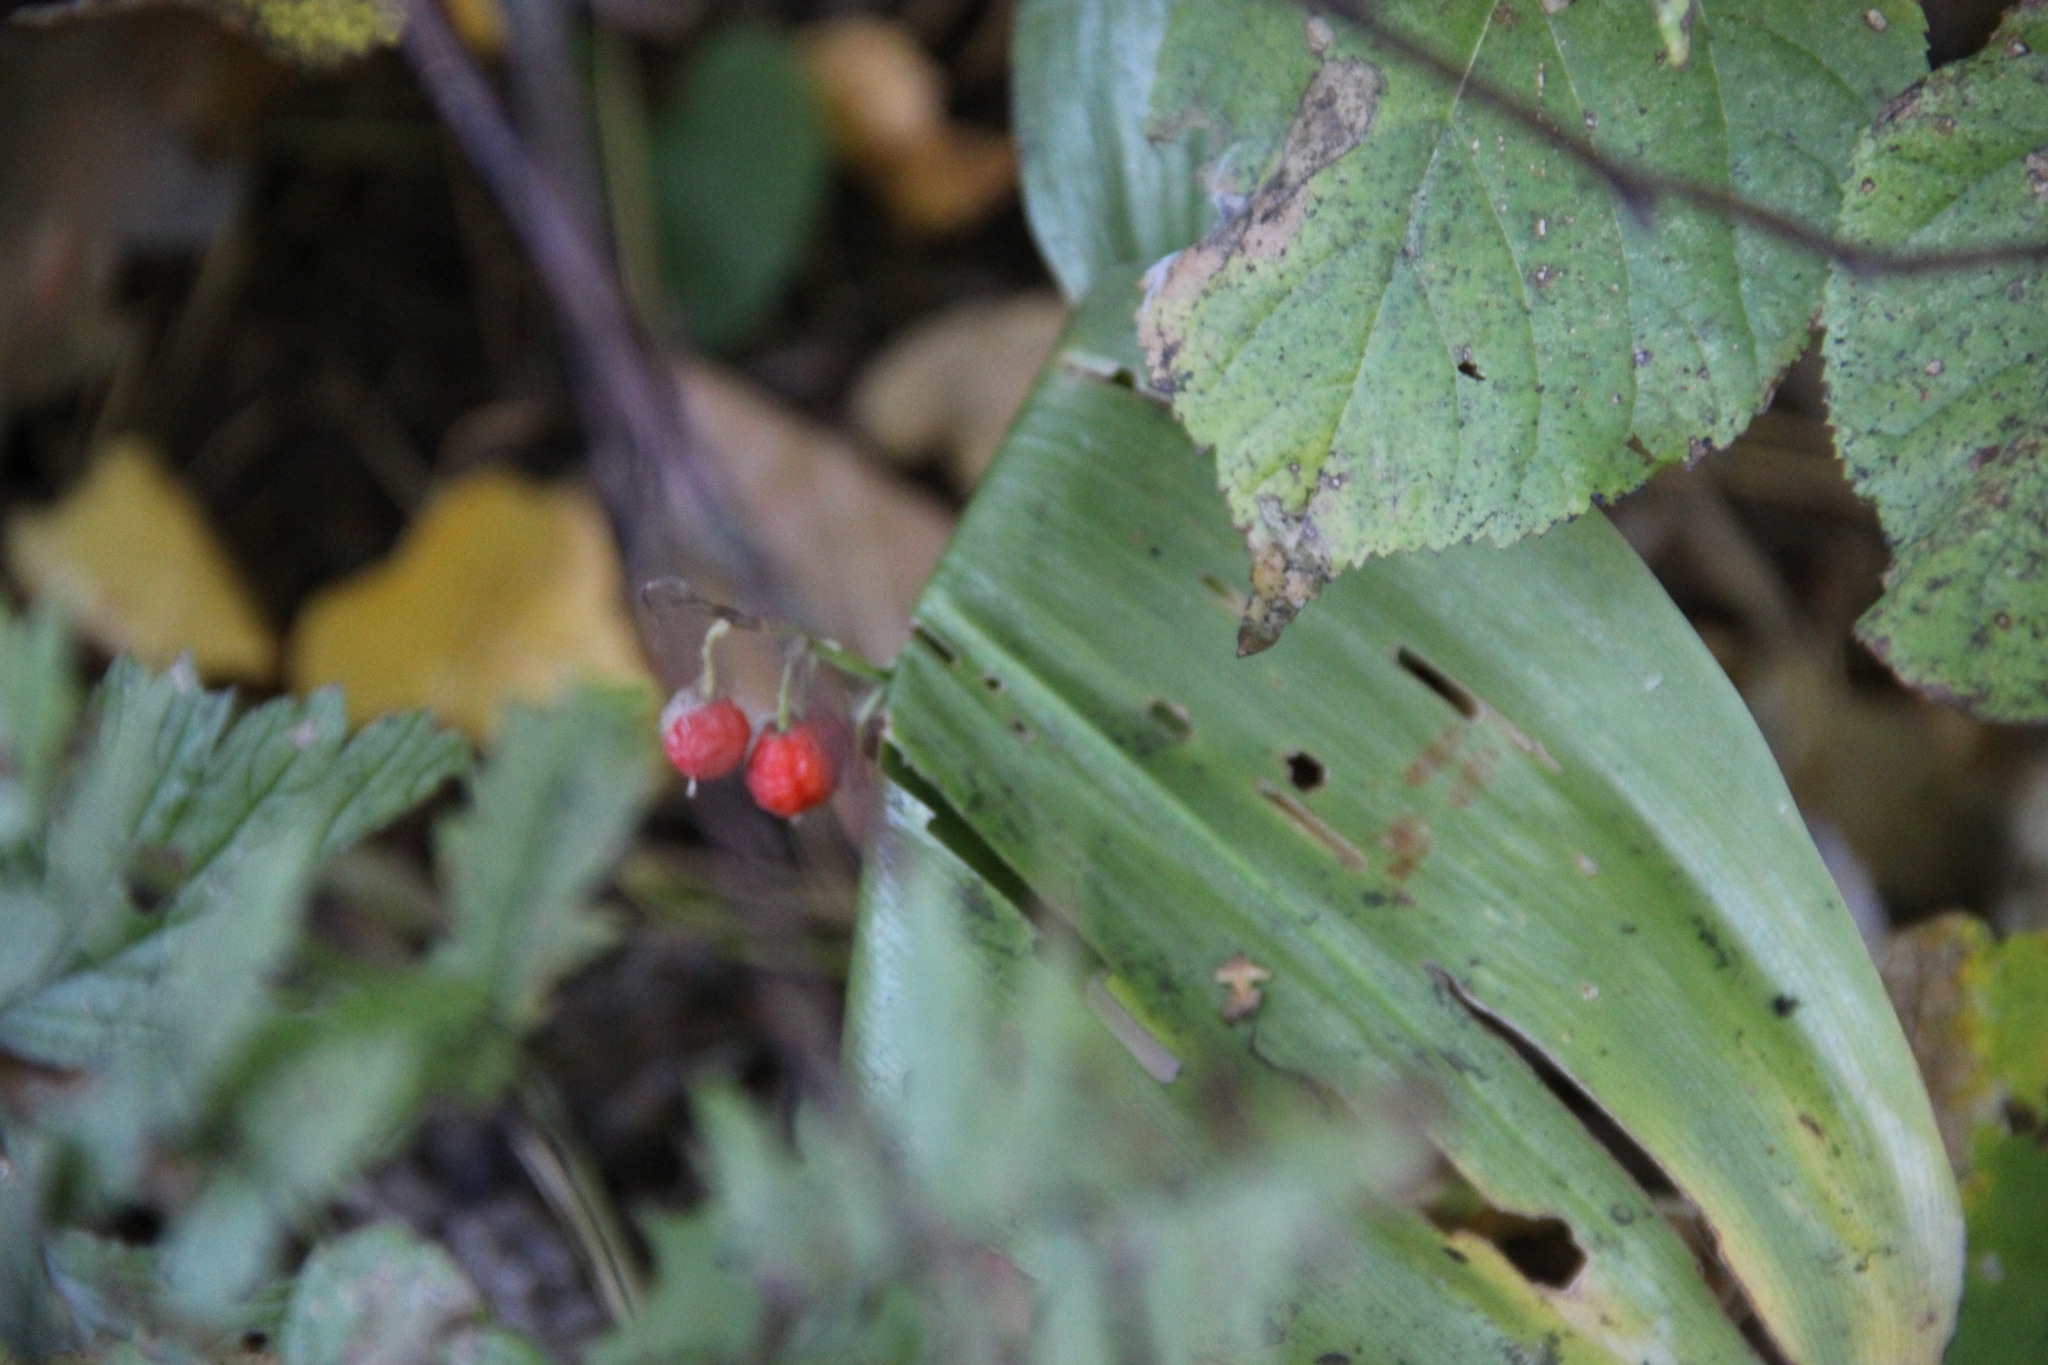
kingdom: Plantae
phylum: Tracheophyta
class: Liliopsida
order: Asparagales
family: Asparagaceae
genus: Convallaria
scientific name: Convallaria majalis
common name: Lily-of-the-valley
